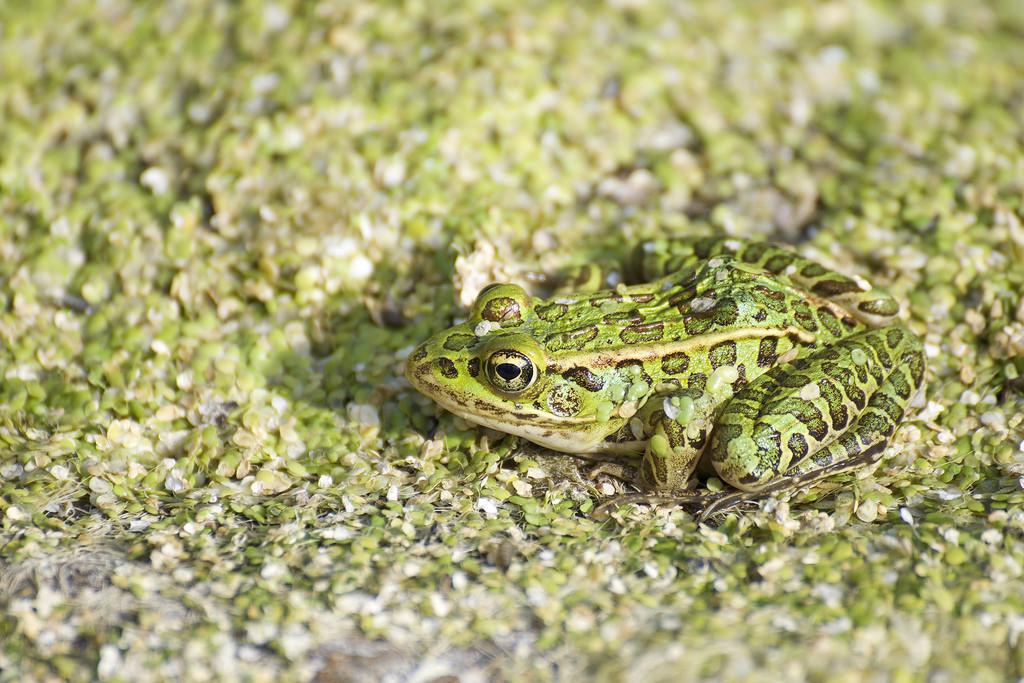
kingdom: Animalia
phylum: Chordata
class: Amphibia
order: Anura
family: Ranidae
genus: Lithobates
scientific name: Lithobates pipiens
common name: Northern leopard frog
